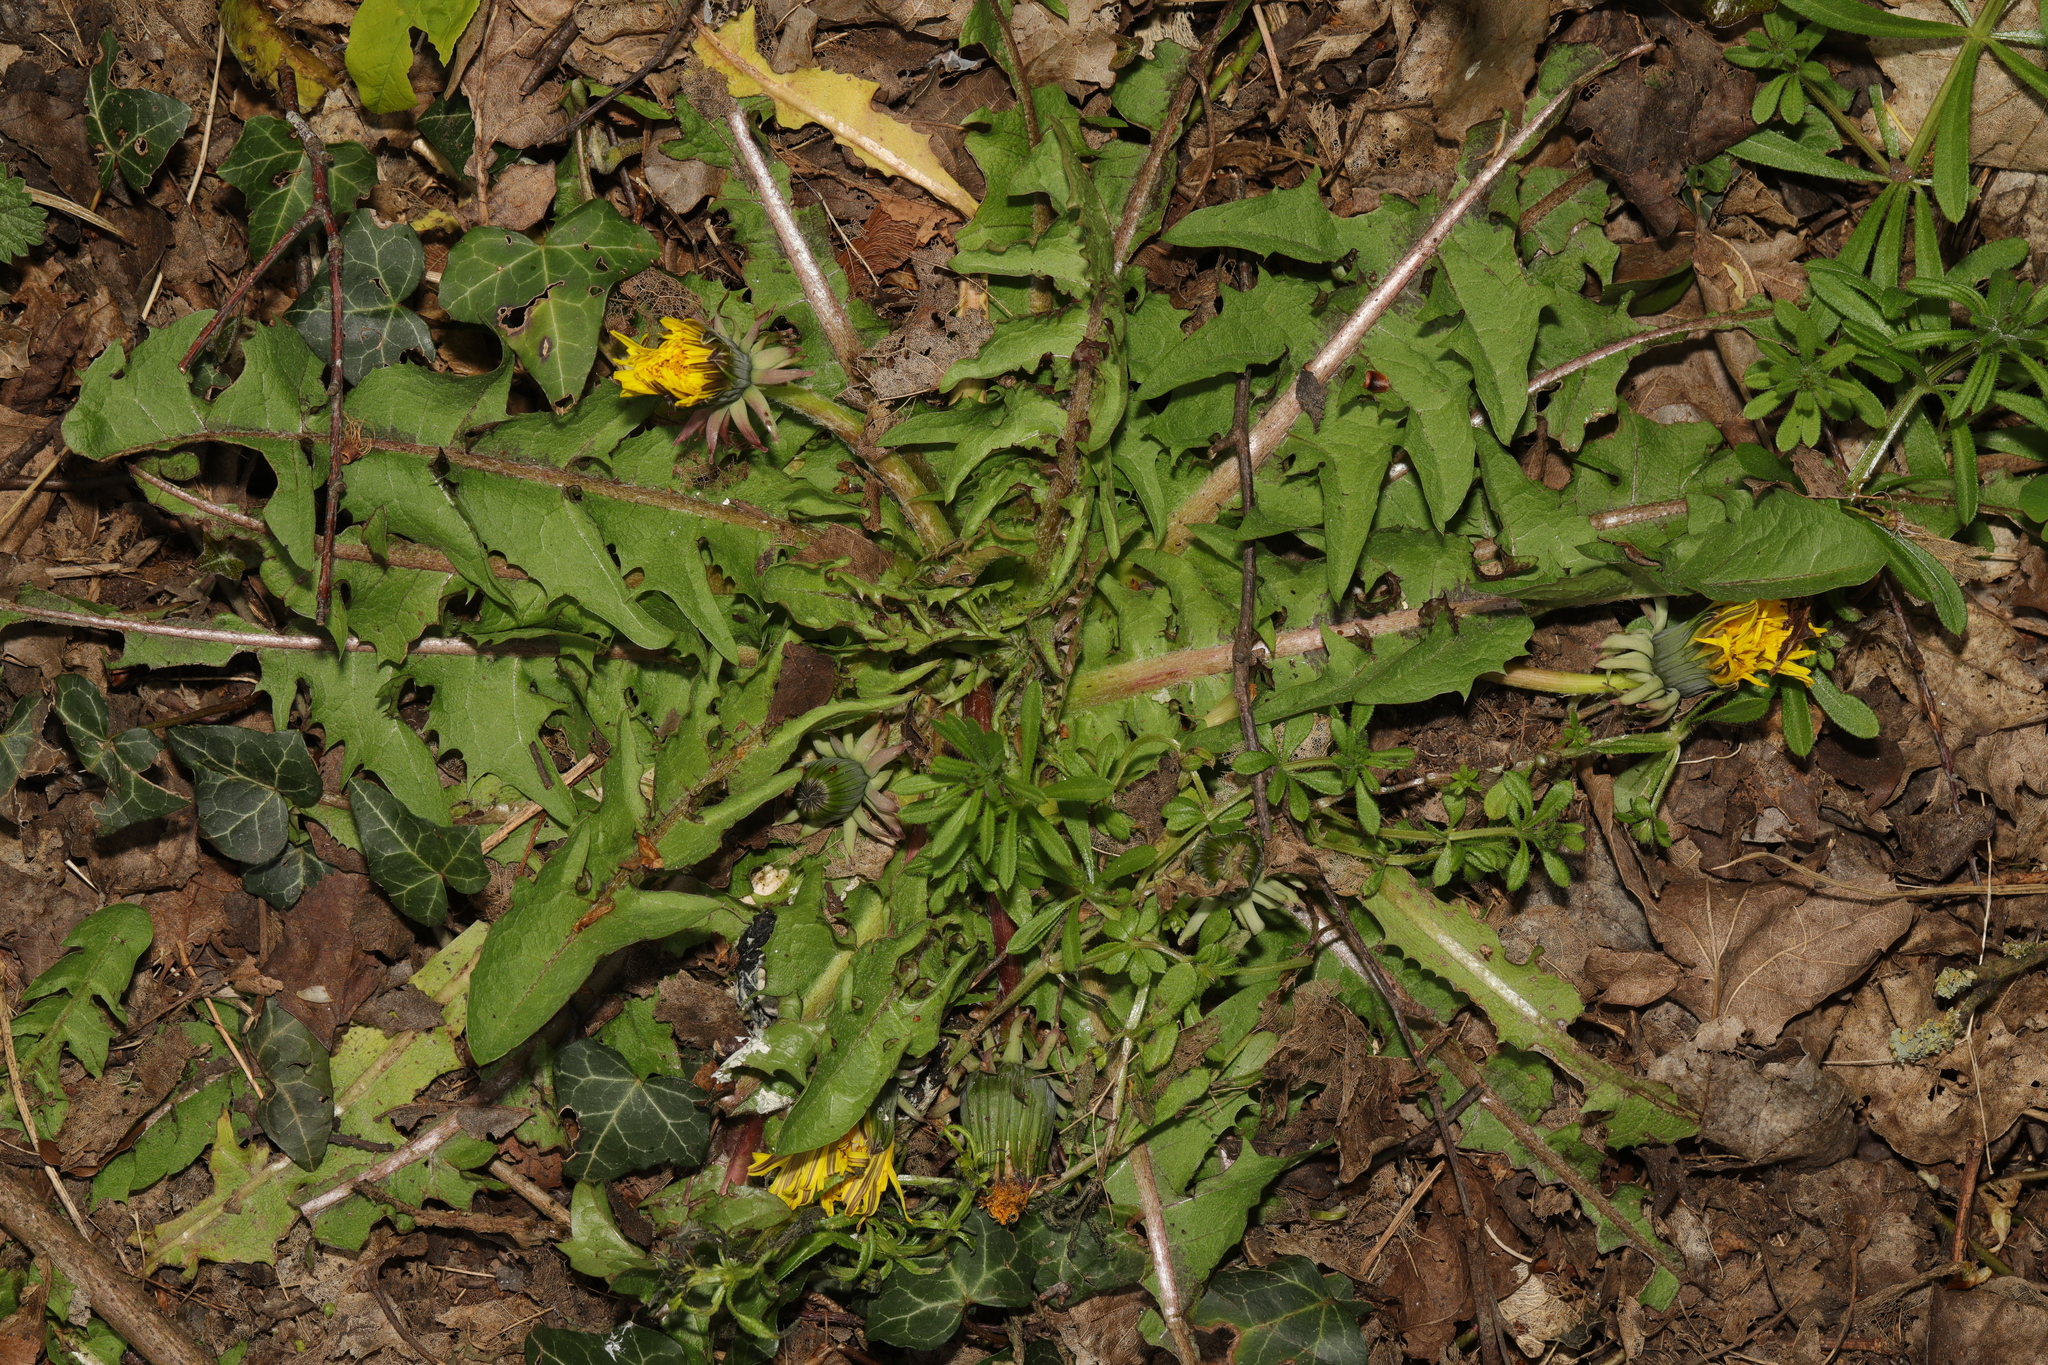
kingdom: Plantae
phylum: Tracheophyta
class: Magnoliopsida
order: Asterales
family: Asteraceae
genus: Taraxacum
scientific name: Taraxacum officinale
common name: Common dandelion
